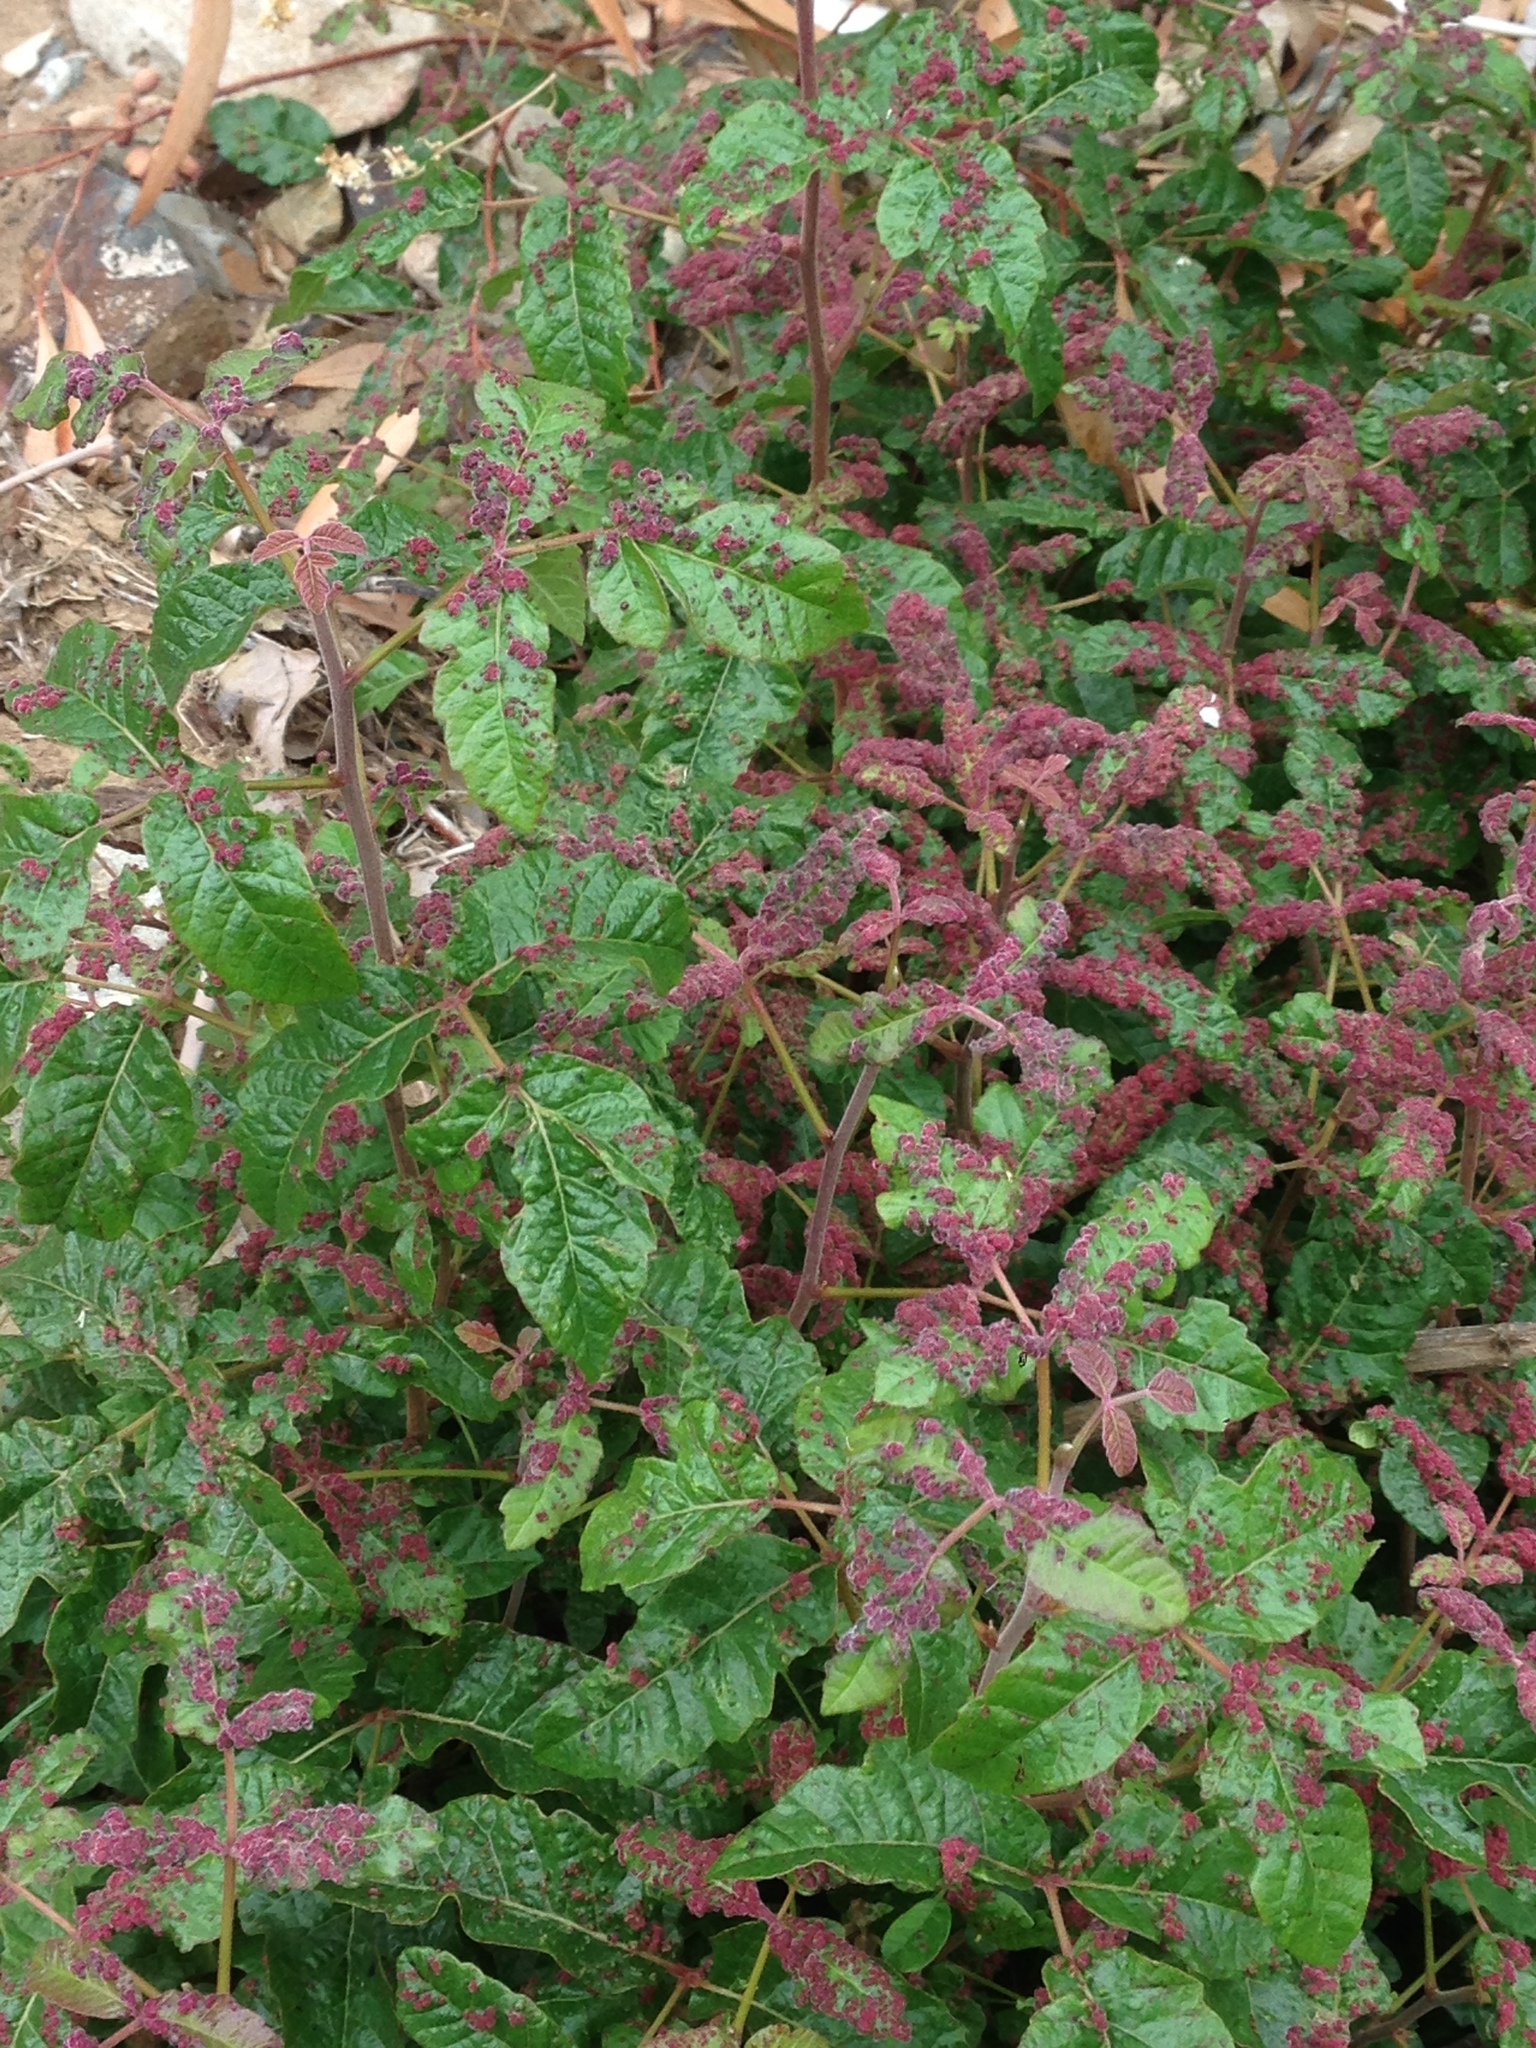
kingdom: Plantae
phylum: Tracheophyta
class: Magnoliopsida
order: Sapindales
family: Anacardiaceae
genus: Toxicodendron
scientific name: Toxicodendron diversilobum
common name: Pacific poison-oak
